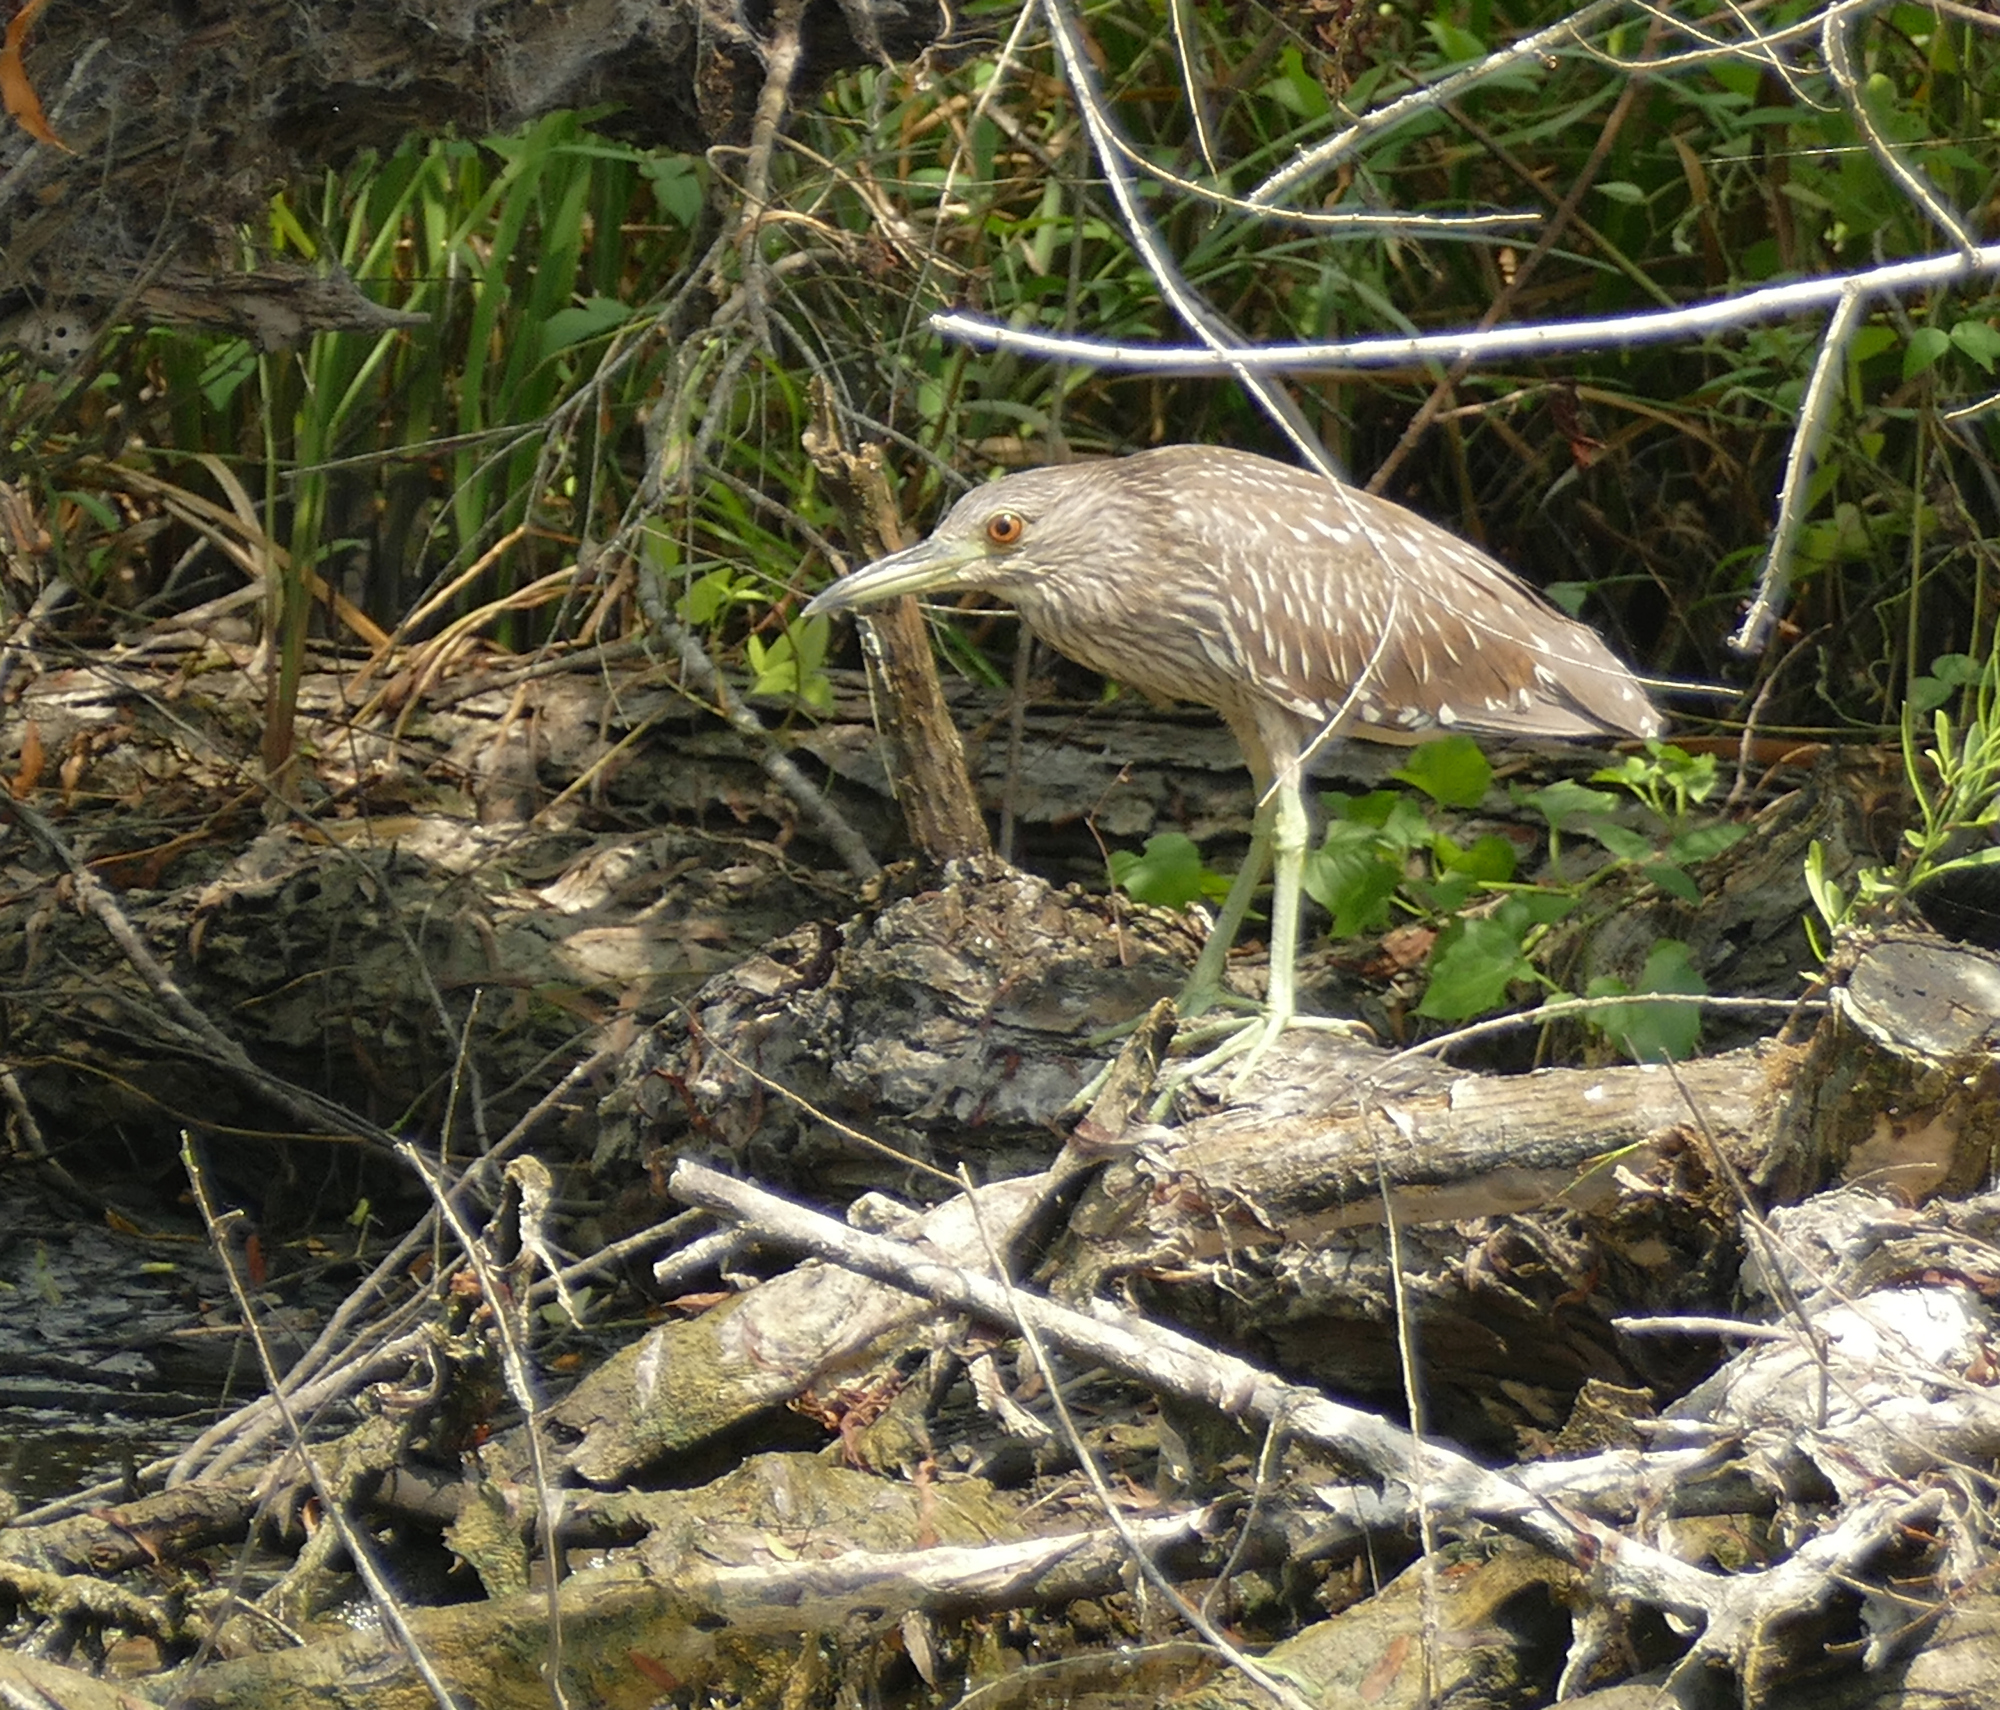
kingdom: Animalia
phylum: Chordata
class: Aves
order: Pelecaniformes
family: Ardeidae
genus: Nycticorax
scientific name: Nycticorax nycticorax
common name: Black-crowned night heron
